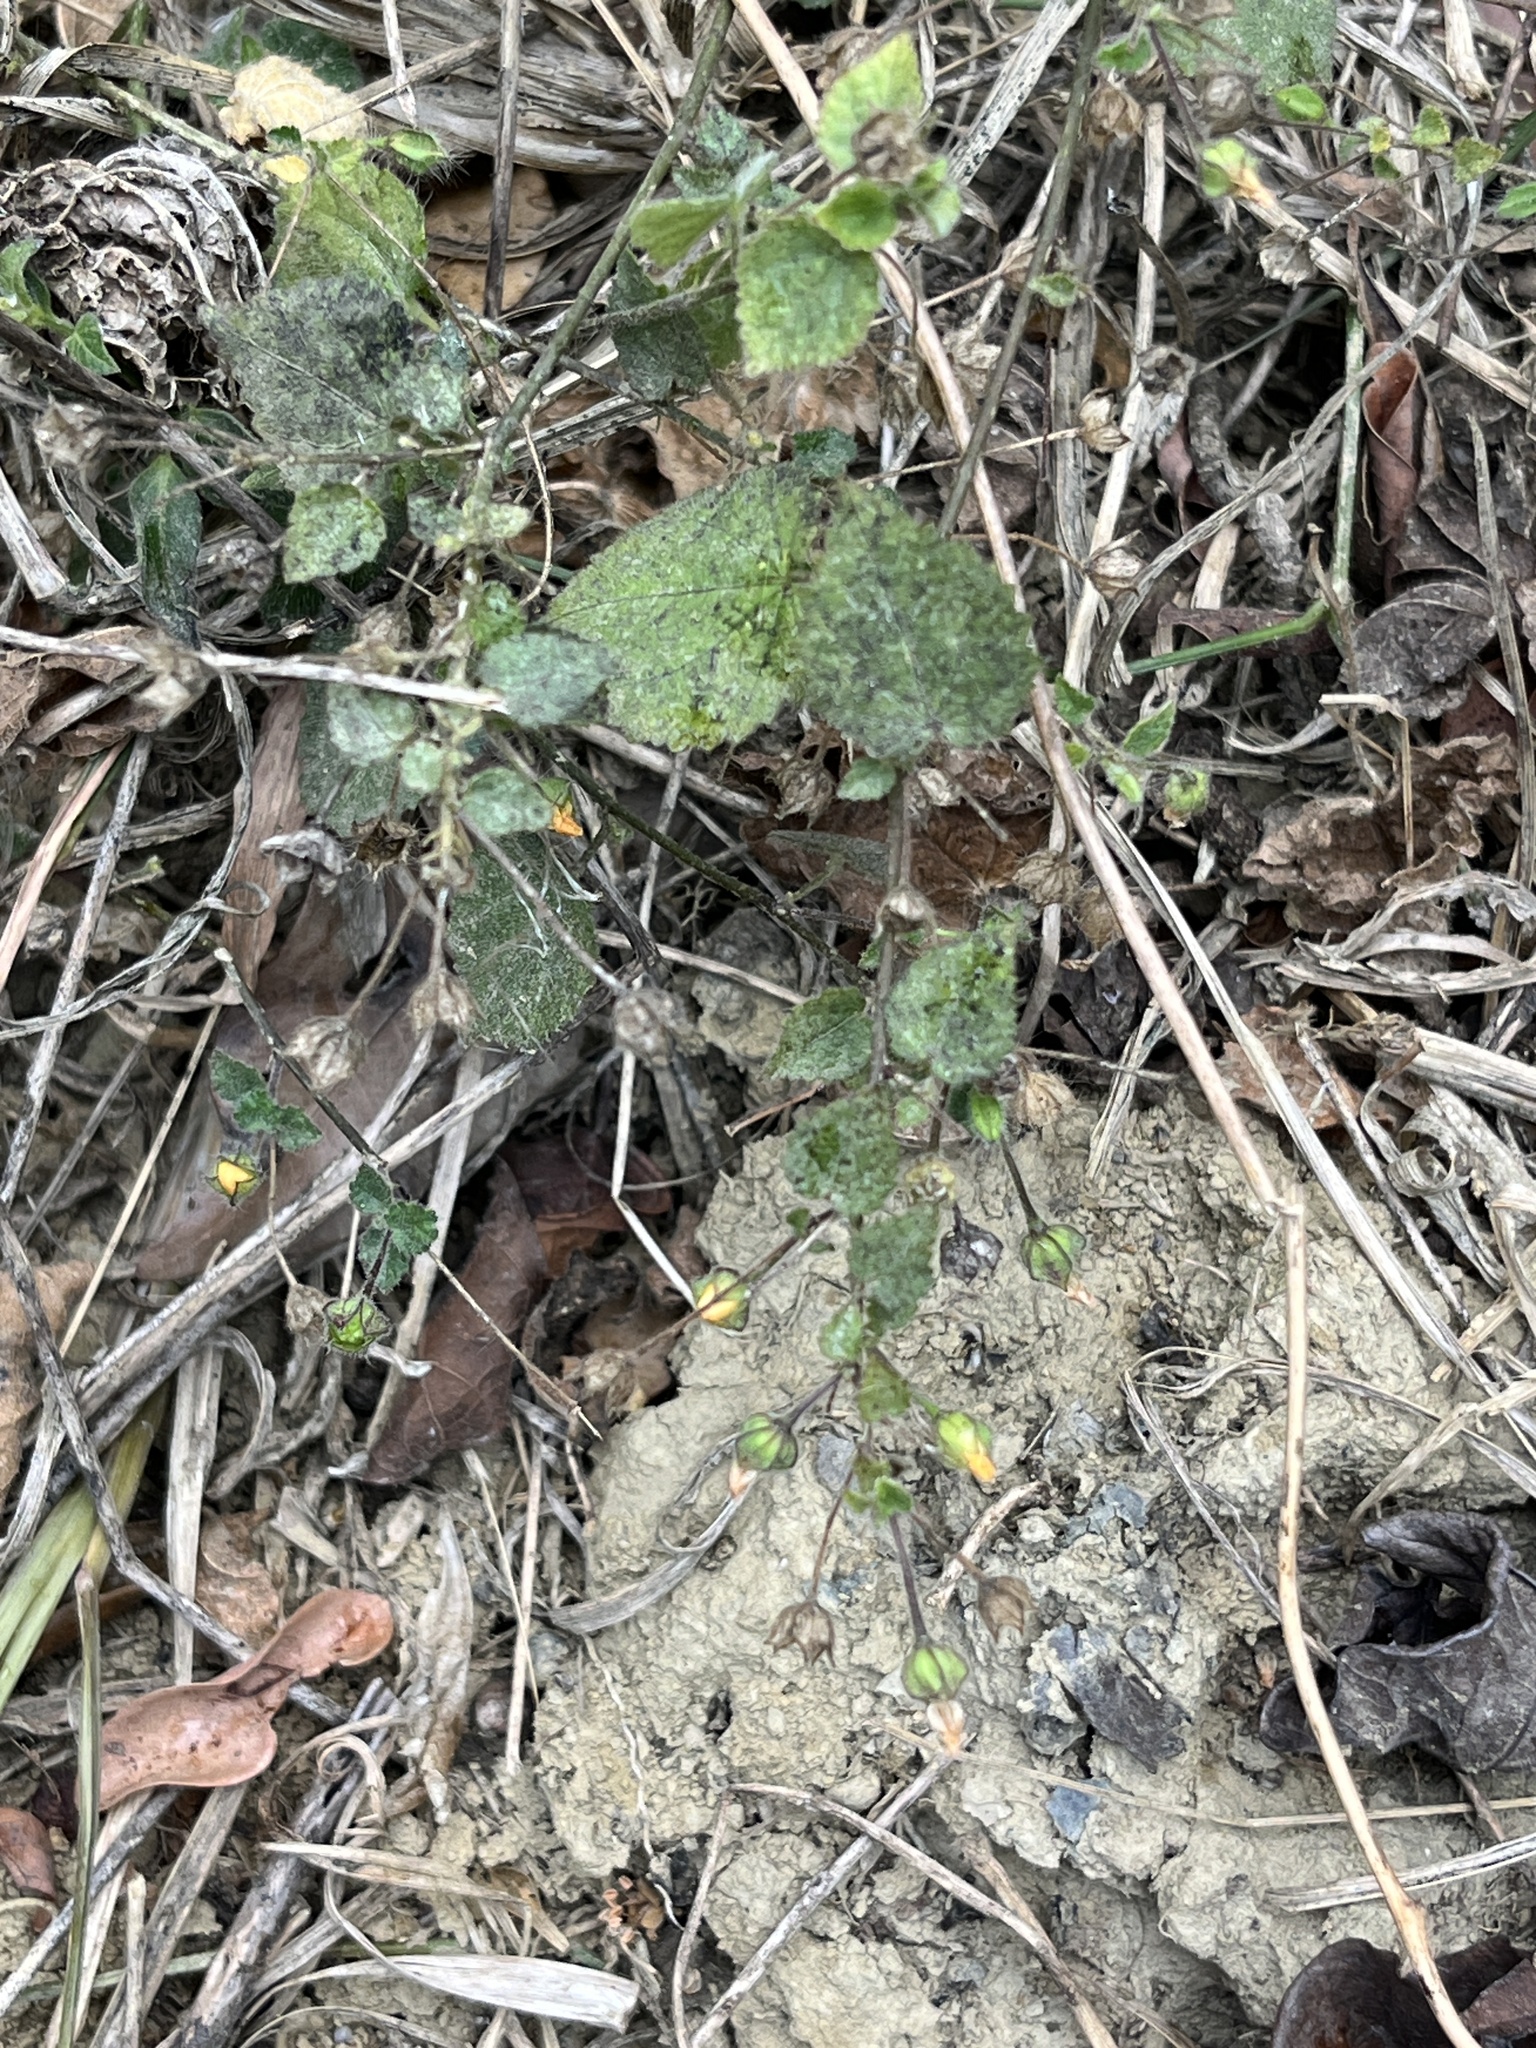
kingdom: Plantae
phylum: Tracheophyta
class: Magnoliopsida
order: Malvales
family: Malvaceae
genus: Sida
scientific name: Sida cordata
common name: Long-stalk sida
